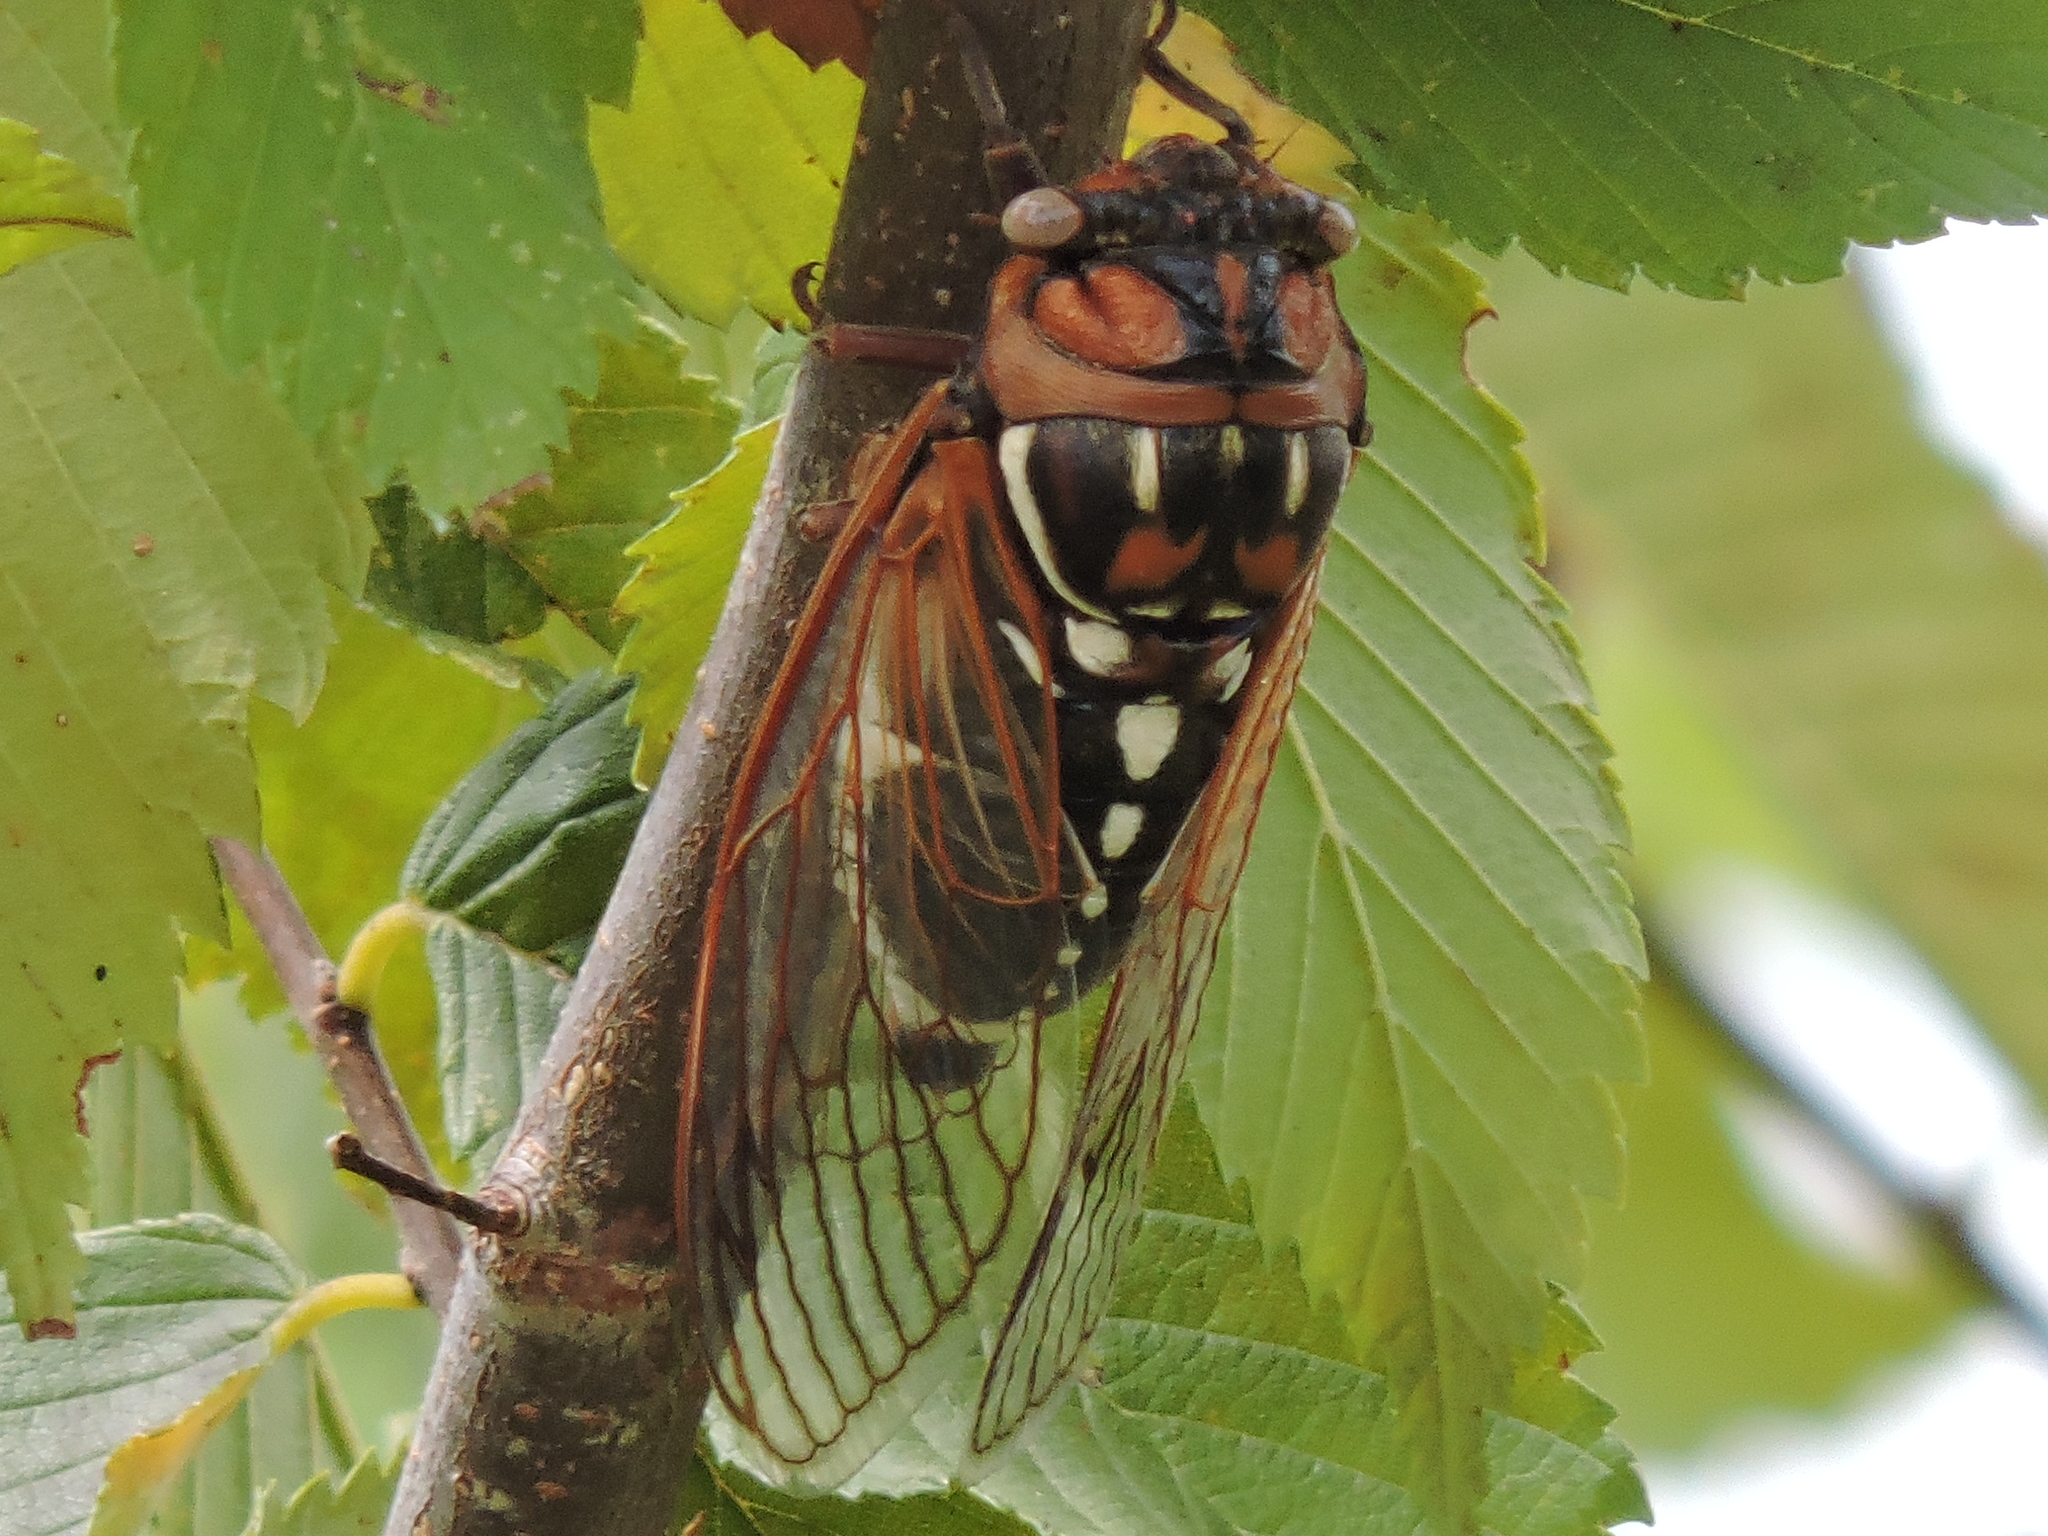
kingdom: Animalia
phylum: Arthropoda
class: Insecta
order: Hemiptera
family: Cicadidae
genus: Megatibicen
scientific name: Megatibicen dorsatus
